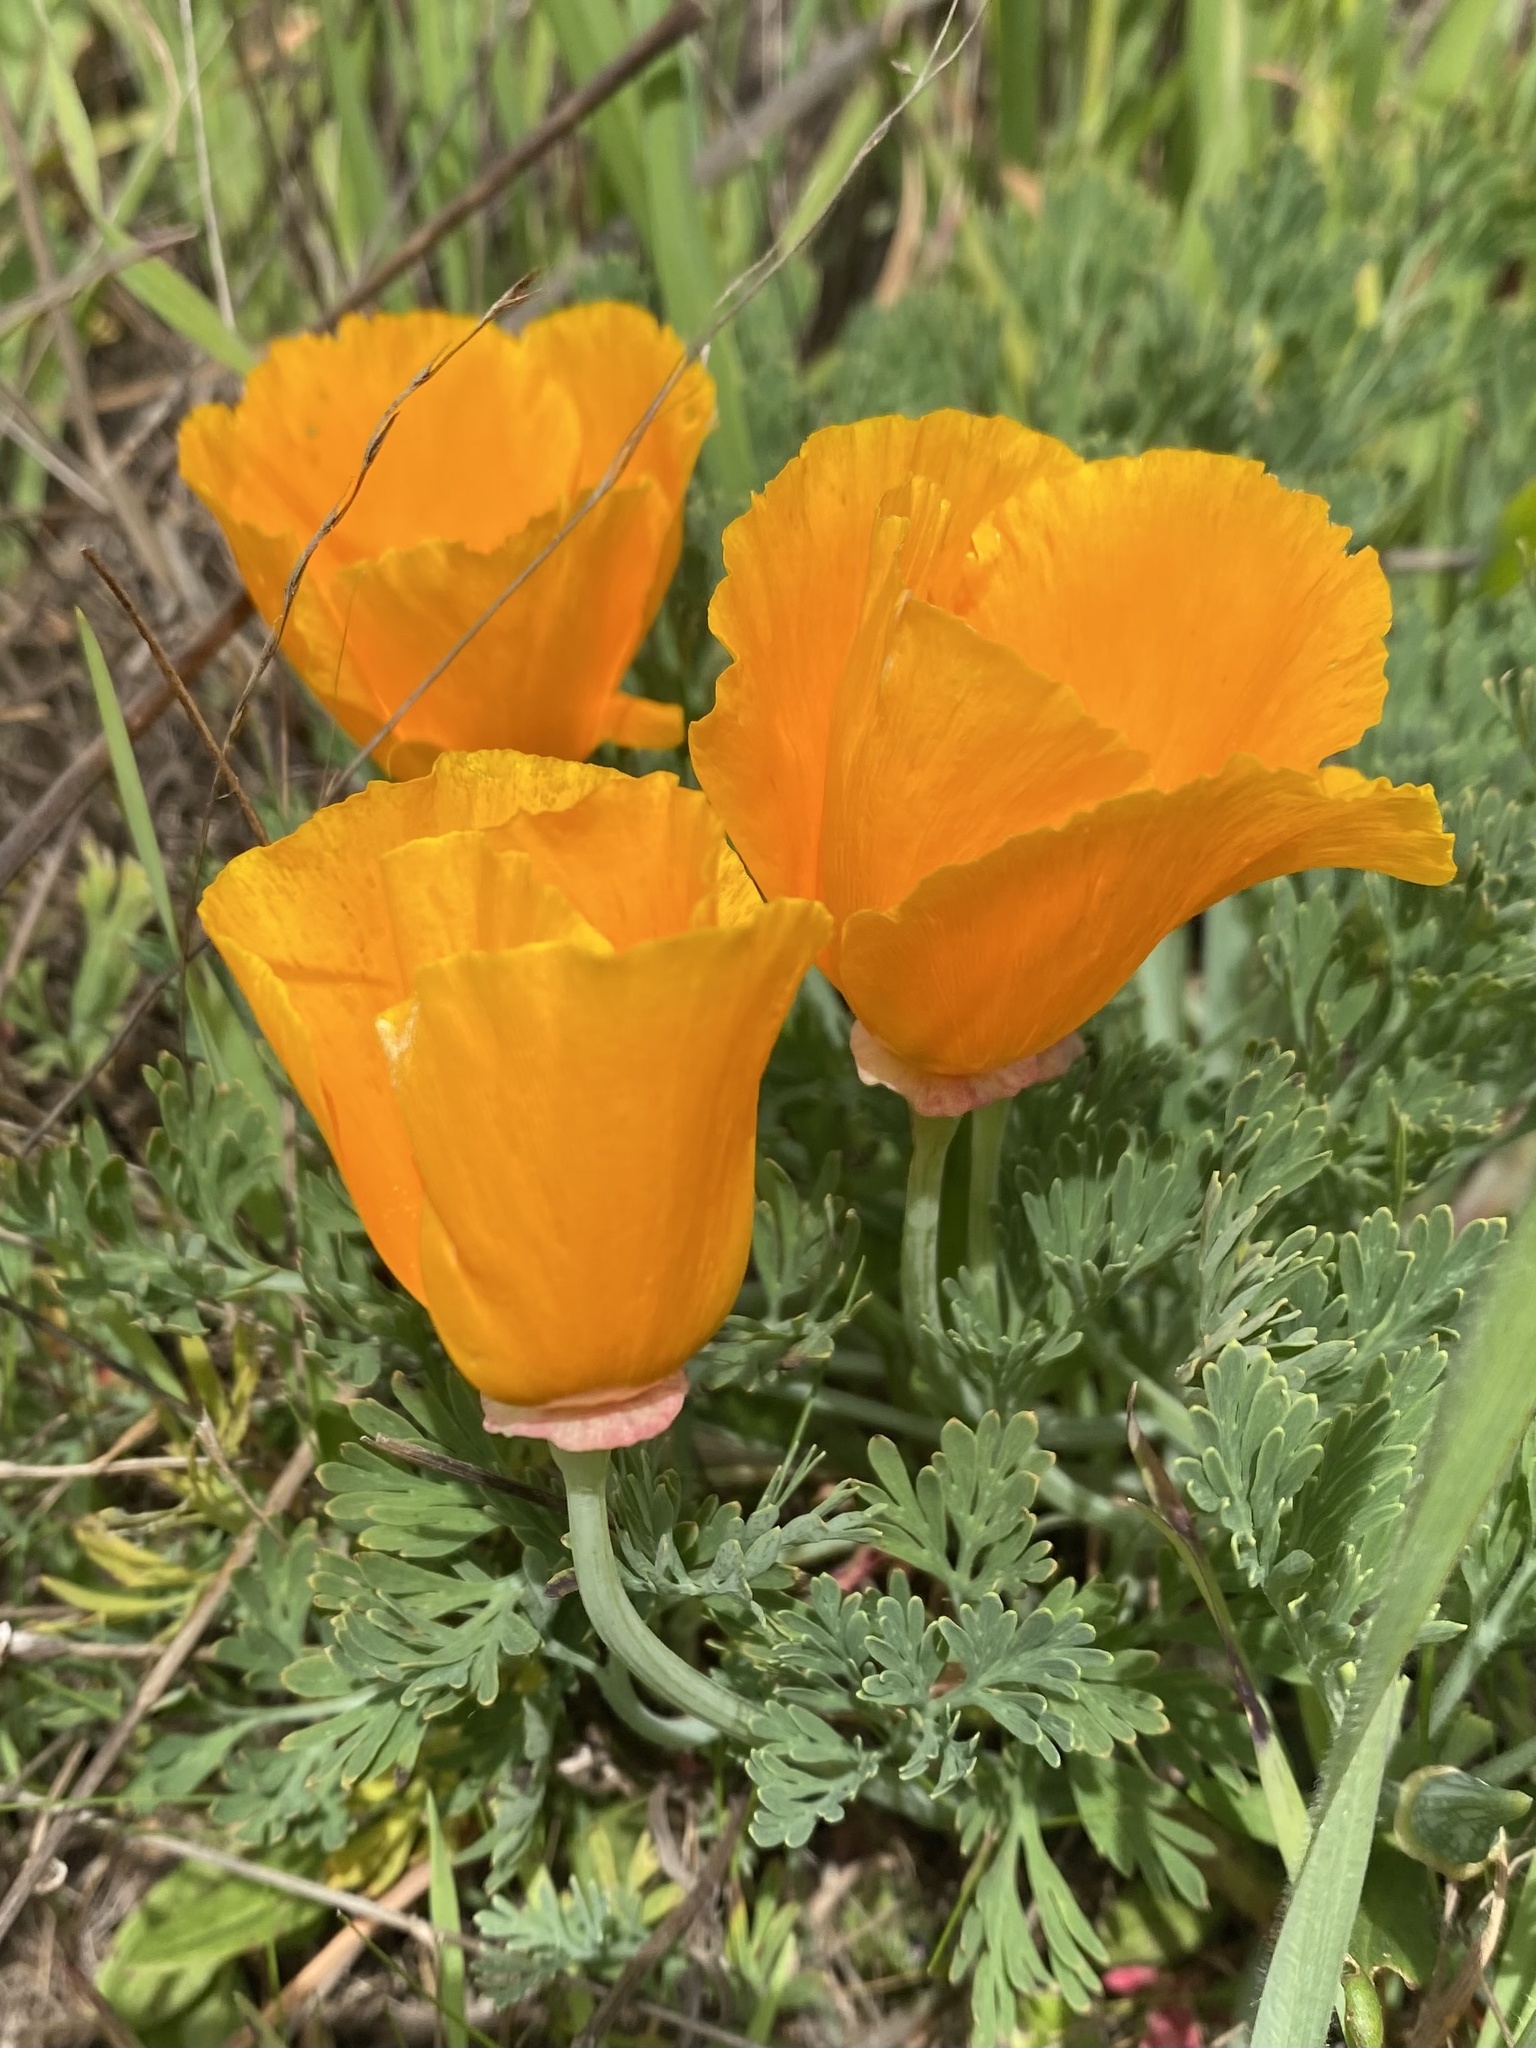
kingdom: Plantae
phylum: Tracheophyta
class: Magnoliopsida
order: Ranunculales
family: Papaveraceae
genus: Eschscholzia
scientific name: Eschscholzia californica
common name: California poppy
